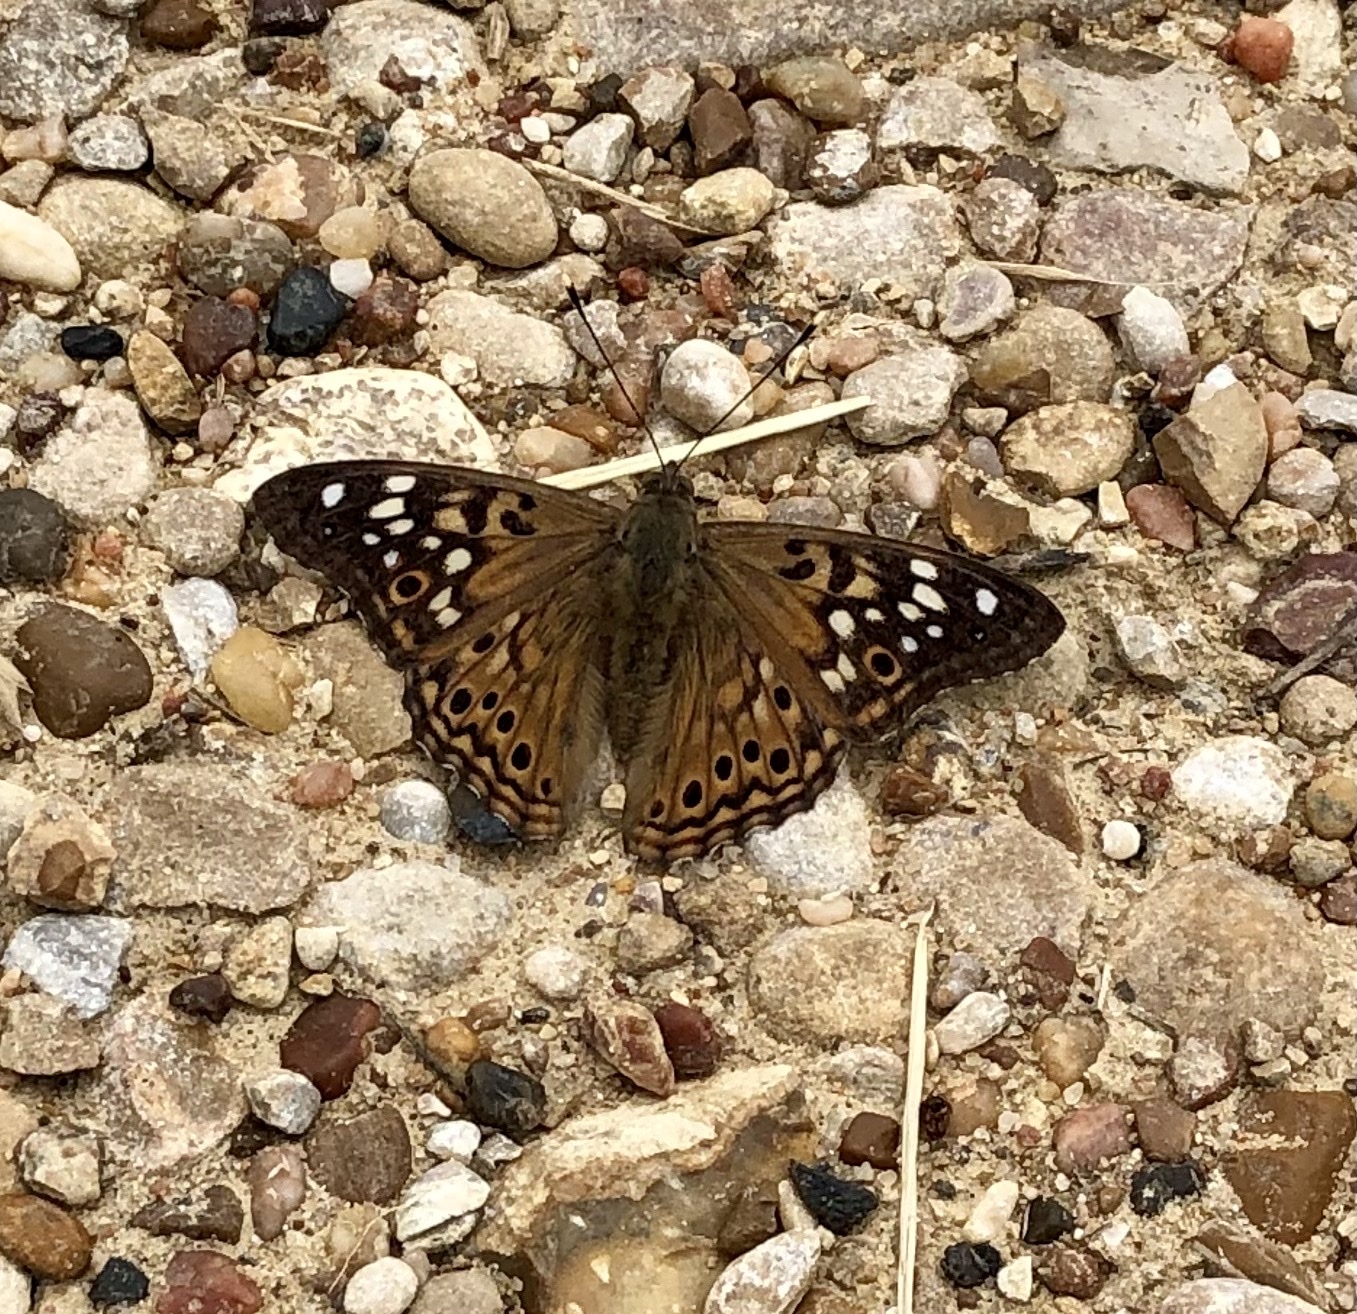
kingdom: Animalia
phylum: Arthropoda
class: Insecta
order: Lepidoptera
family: Nymphalidae
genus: Asterocampa
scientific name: Asterocampa celtis
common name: Hackberry emperor
